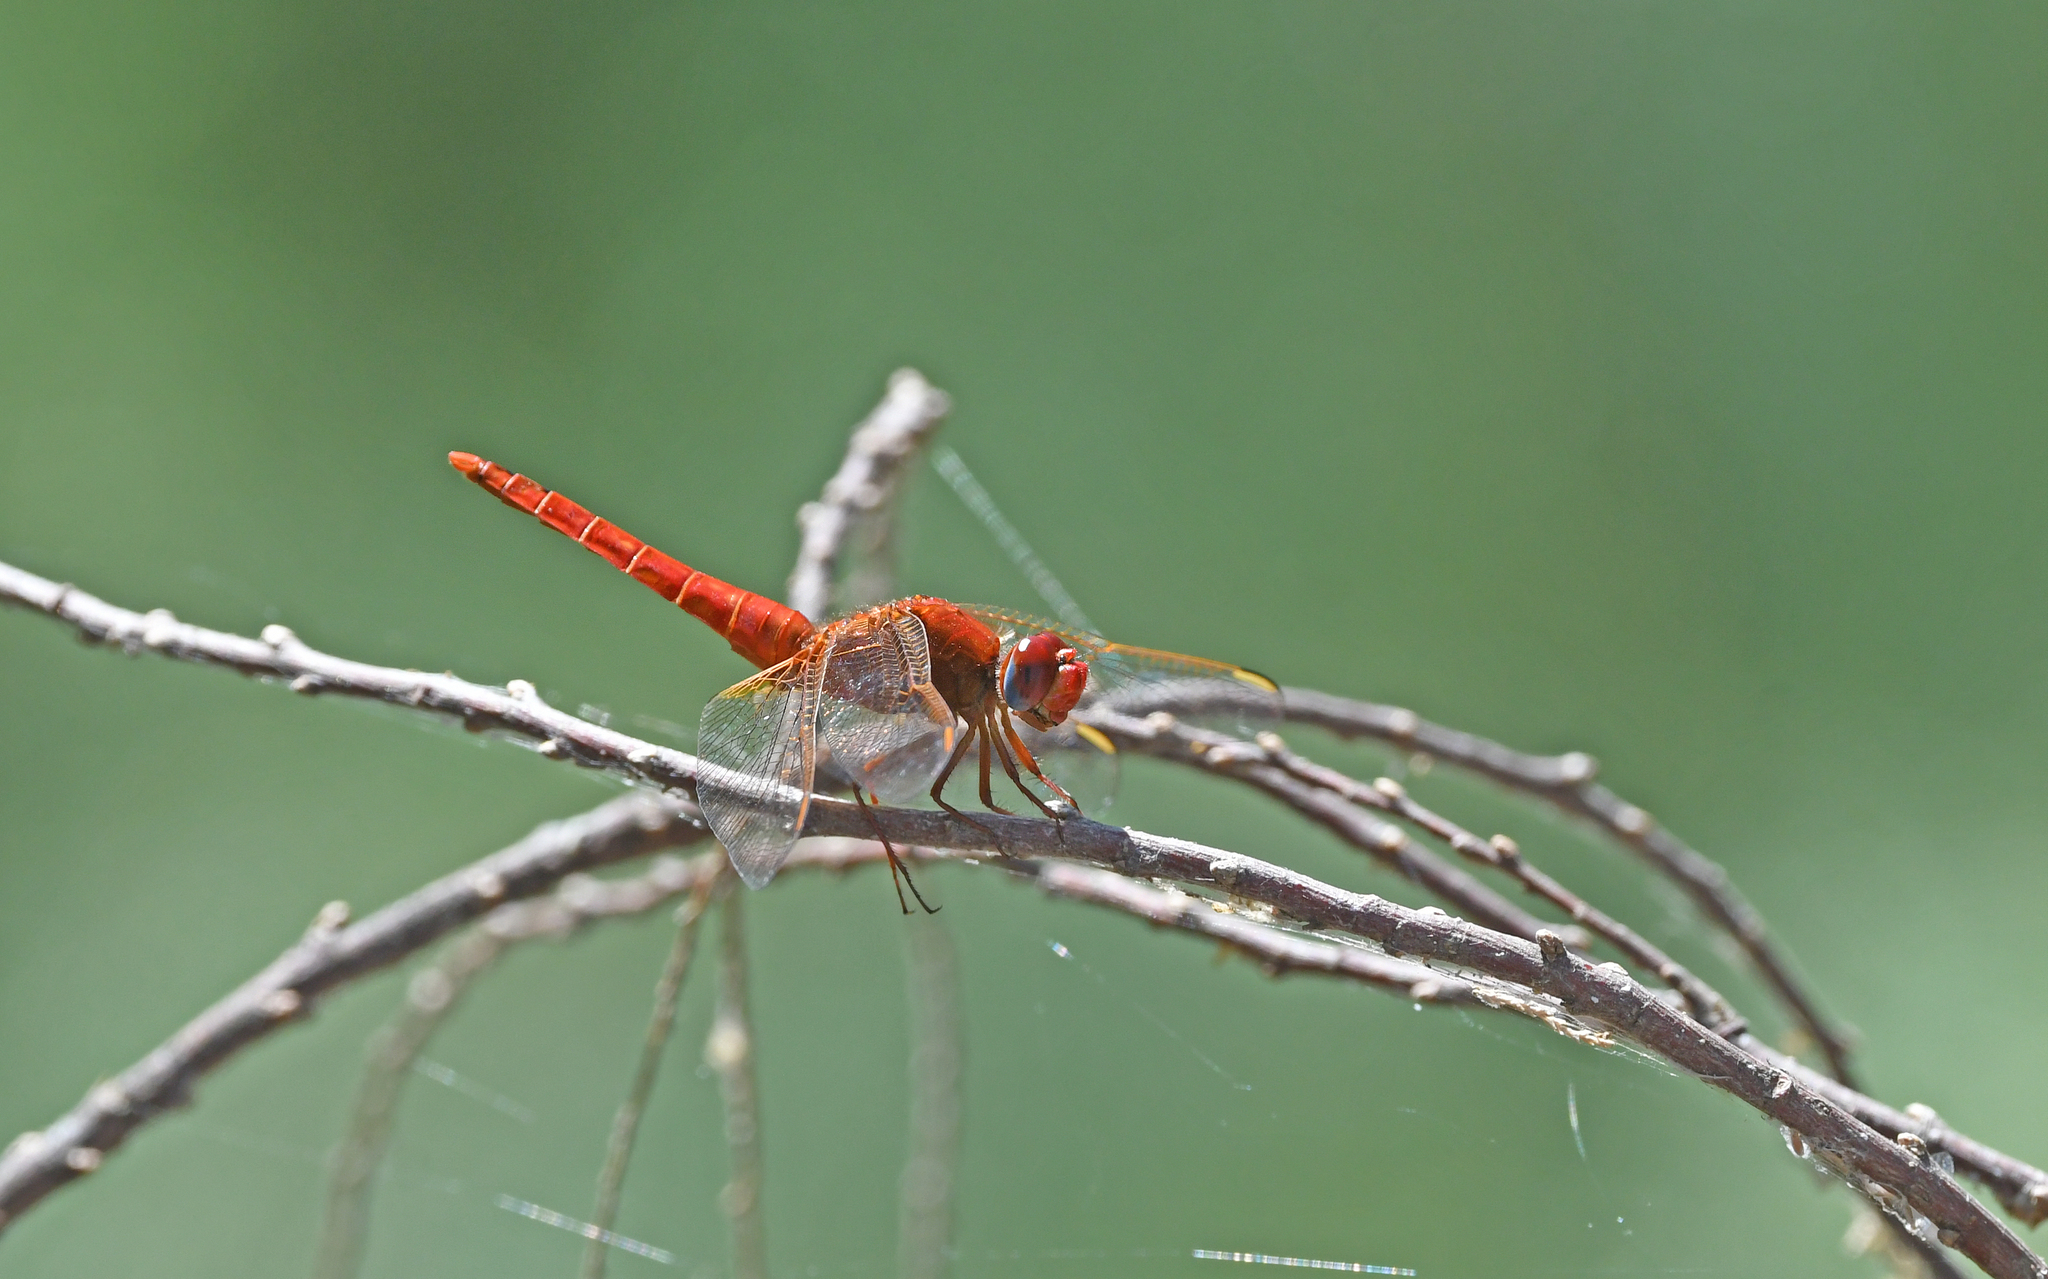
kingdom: Animalia
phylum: Arthropoda
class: Insecta
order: Odonata
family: Libellulidae
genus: Crocothemis
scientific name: Crocothemis erythraea
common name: Scarlet dragonfly
